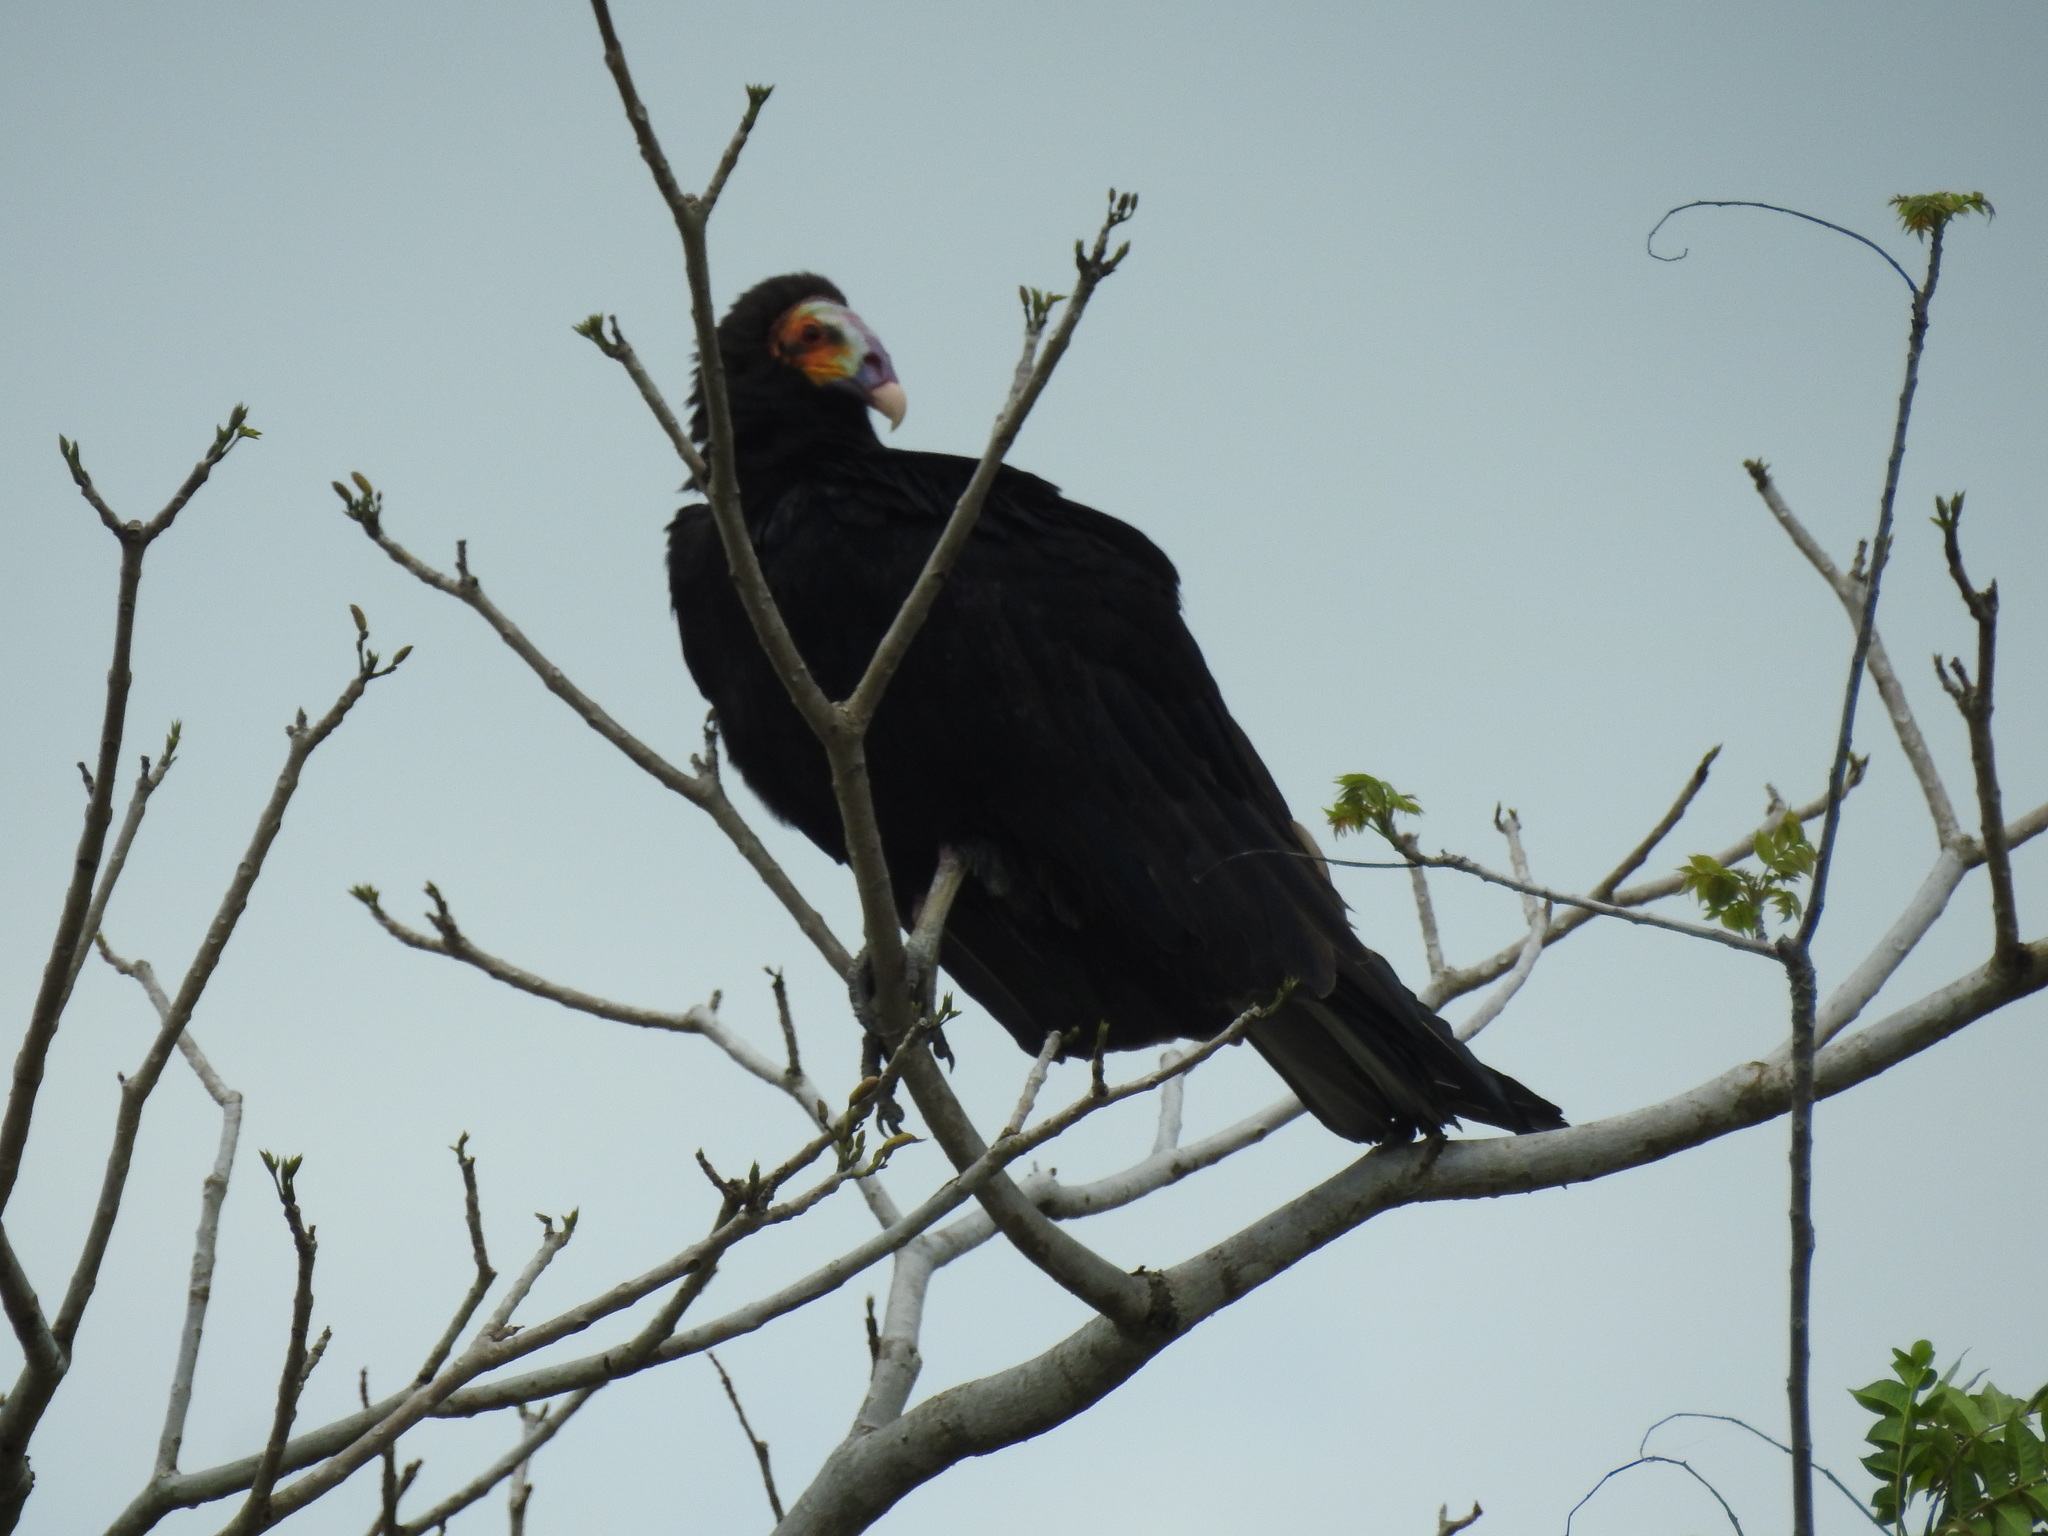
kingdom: Animalia
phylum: Chordata
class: Aves
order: Accipitriformes
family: Cathartidae
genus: Cathartes
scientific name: Cathartes burrovianus
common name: Lesser yellow-headed vulture
